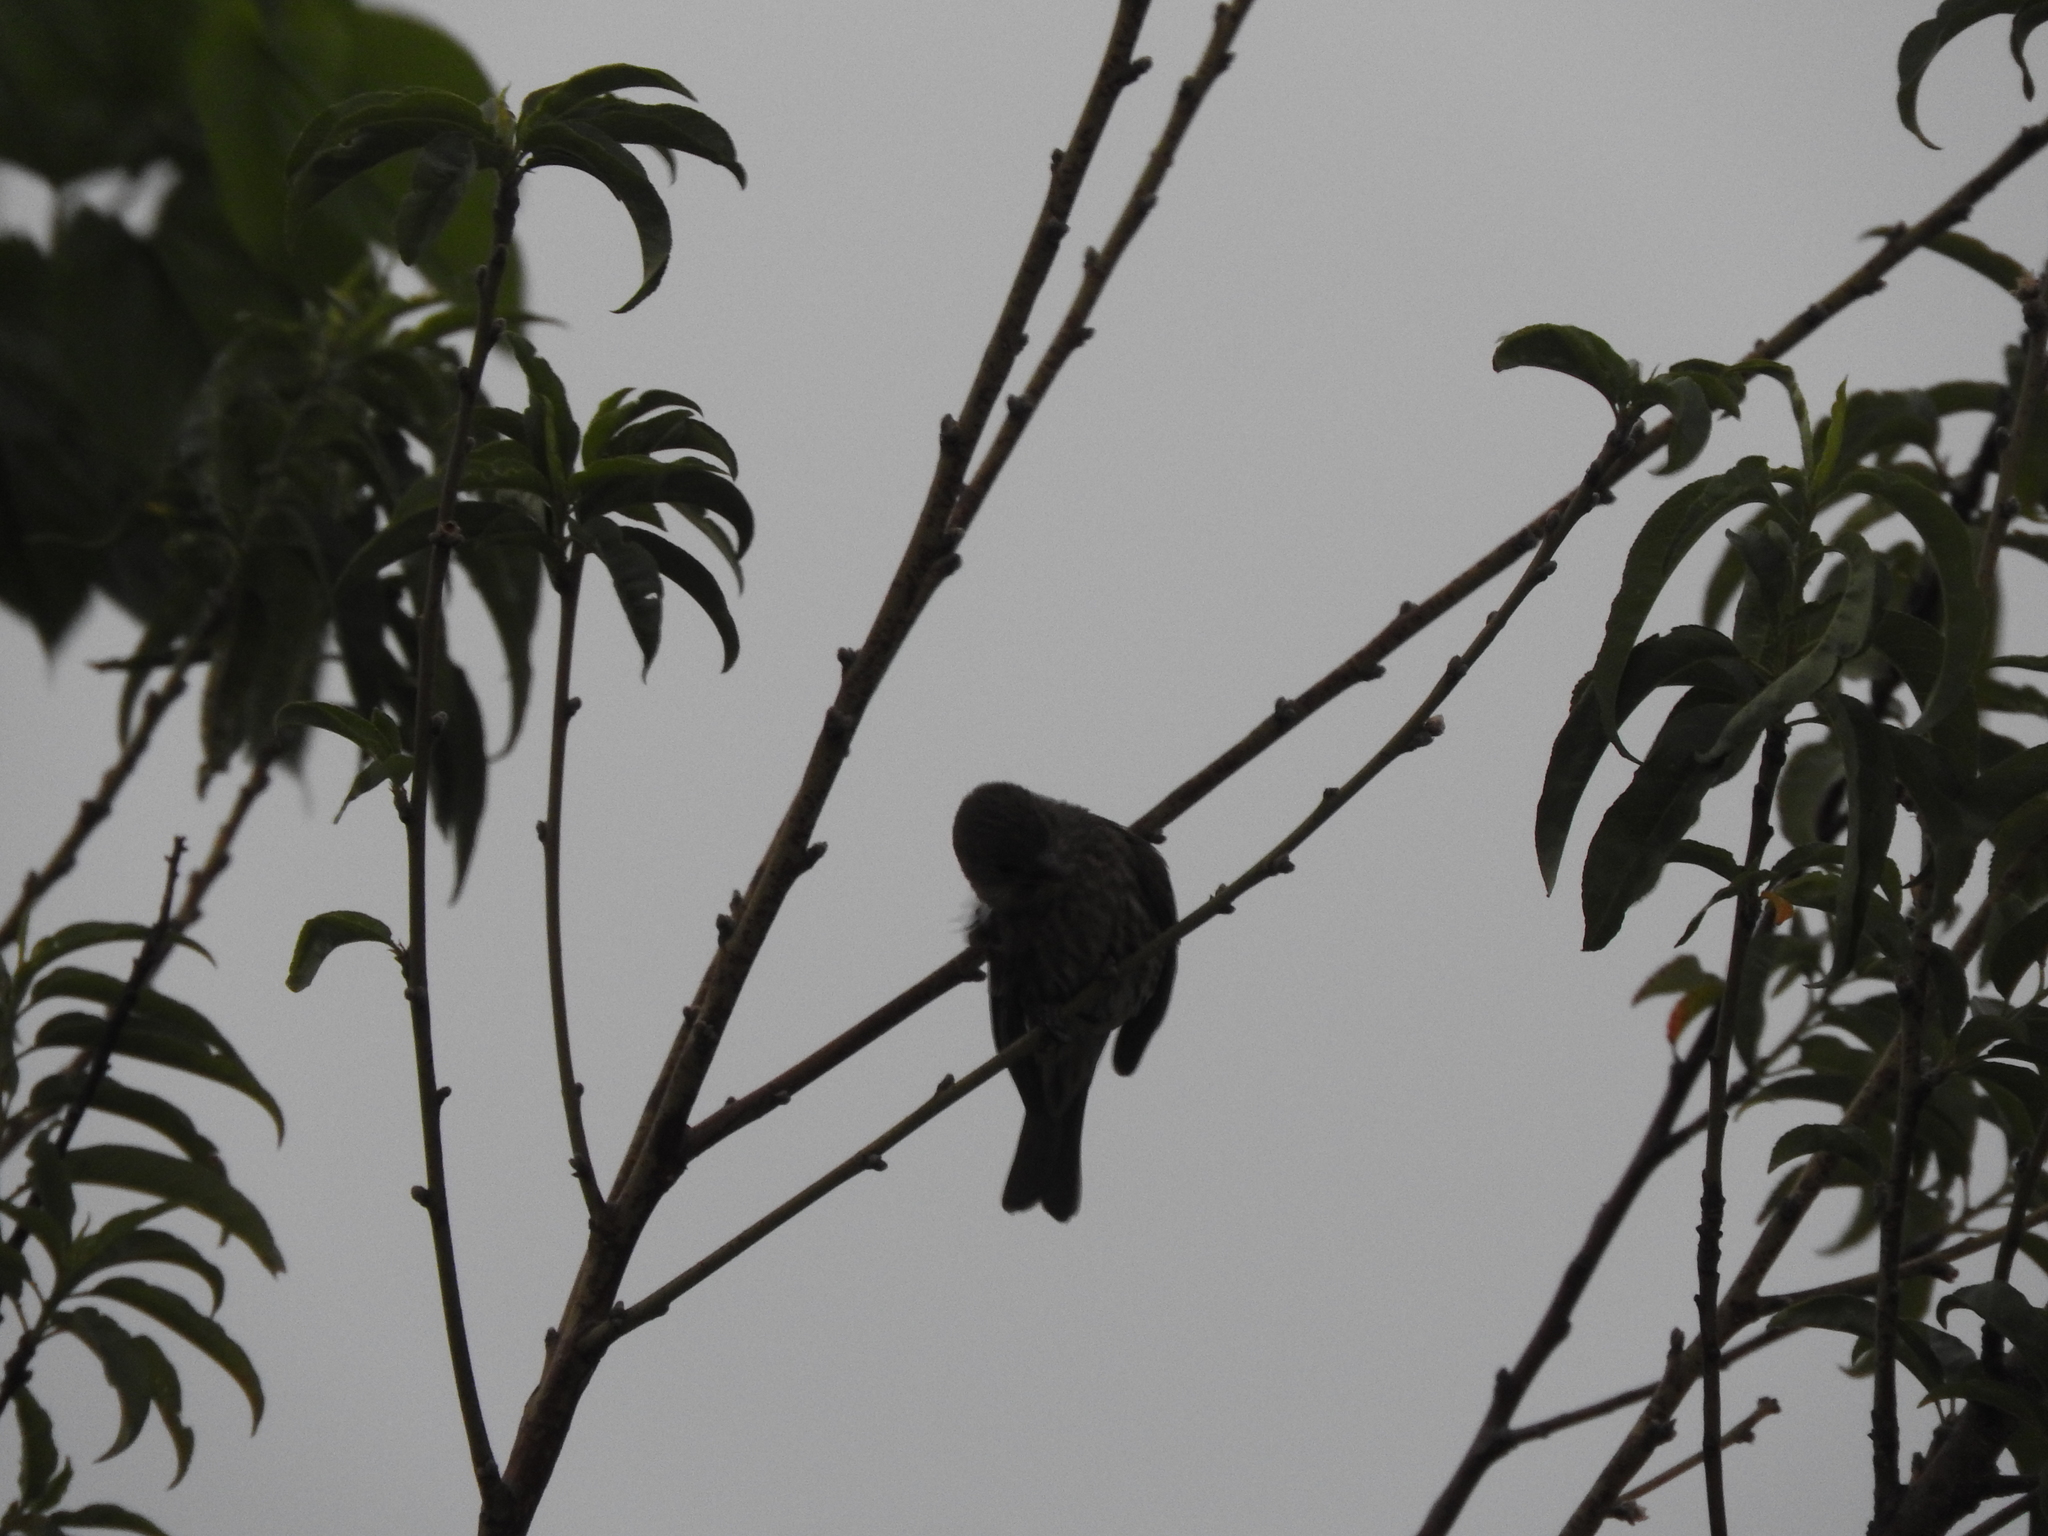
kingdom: Animalia
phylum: Chordata
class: Aves
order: Passeriformes
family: Fringillidae
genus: Haemorhous
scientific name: Haemorhous mexicanus
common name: House finch
